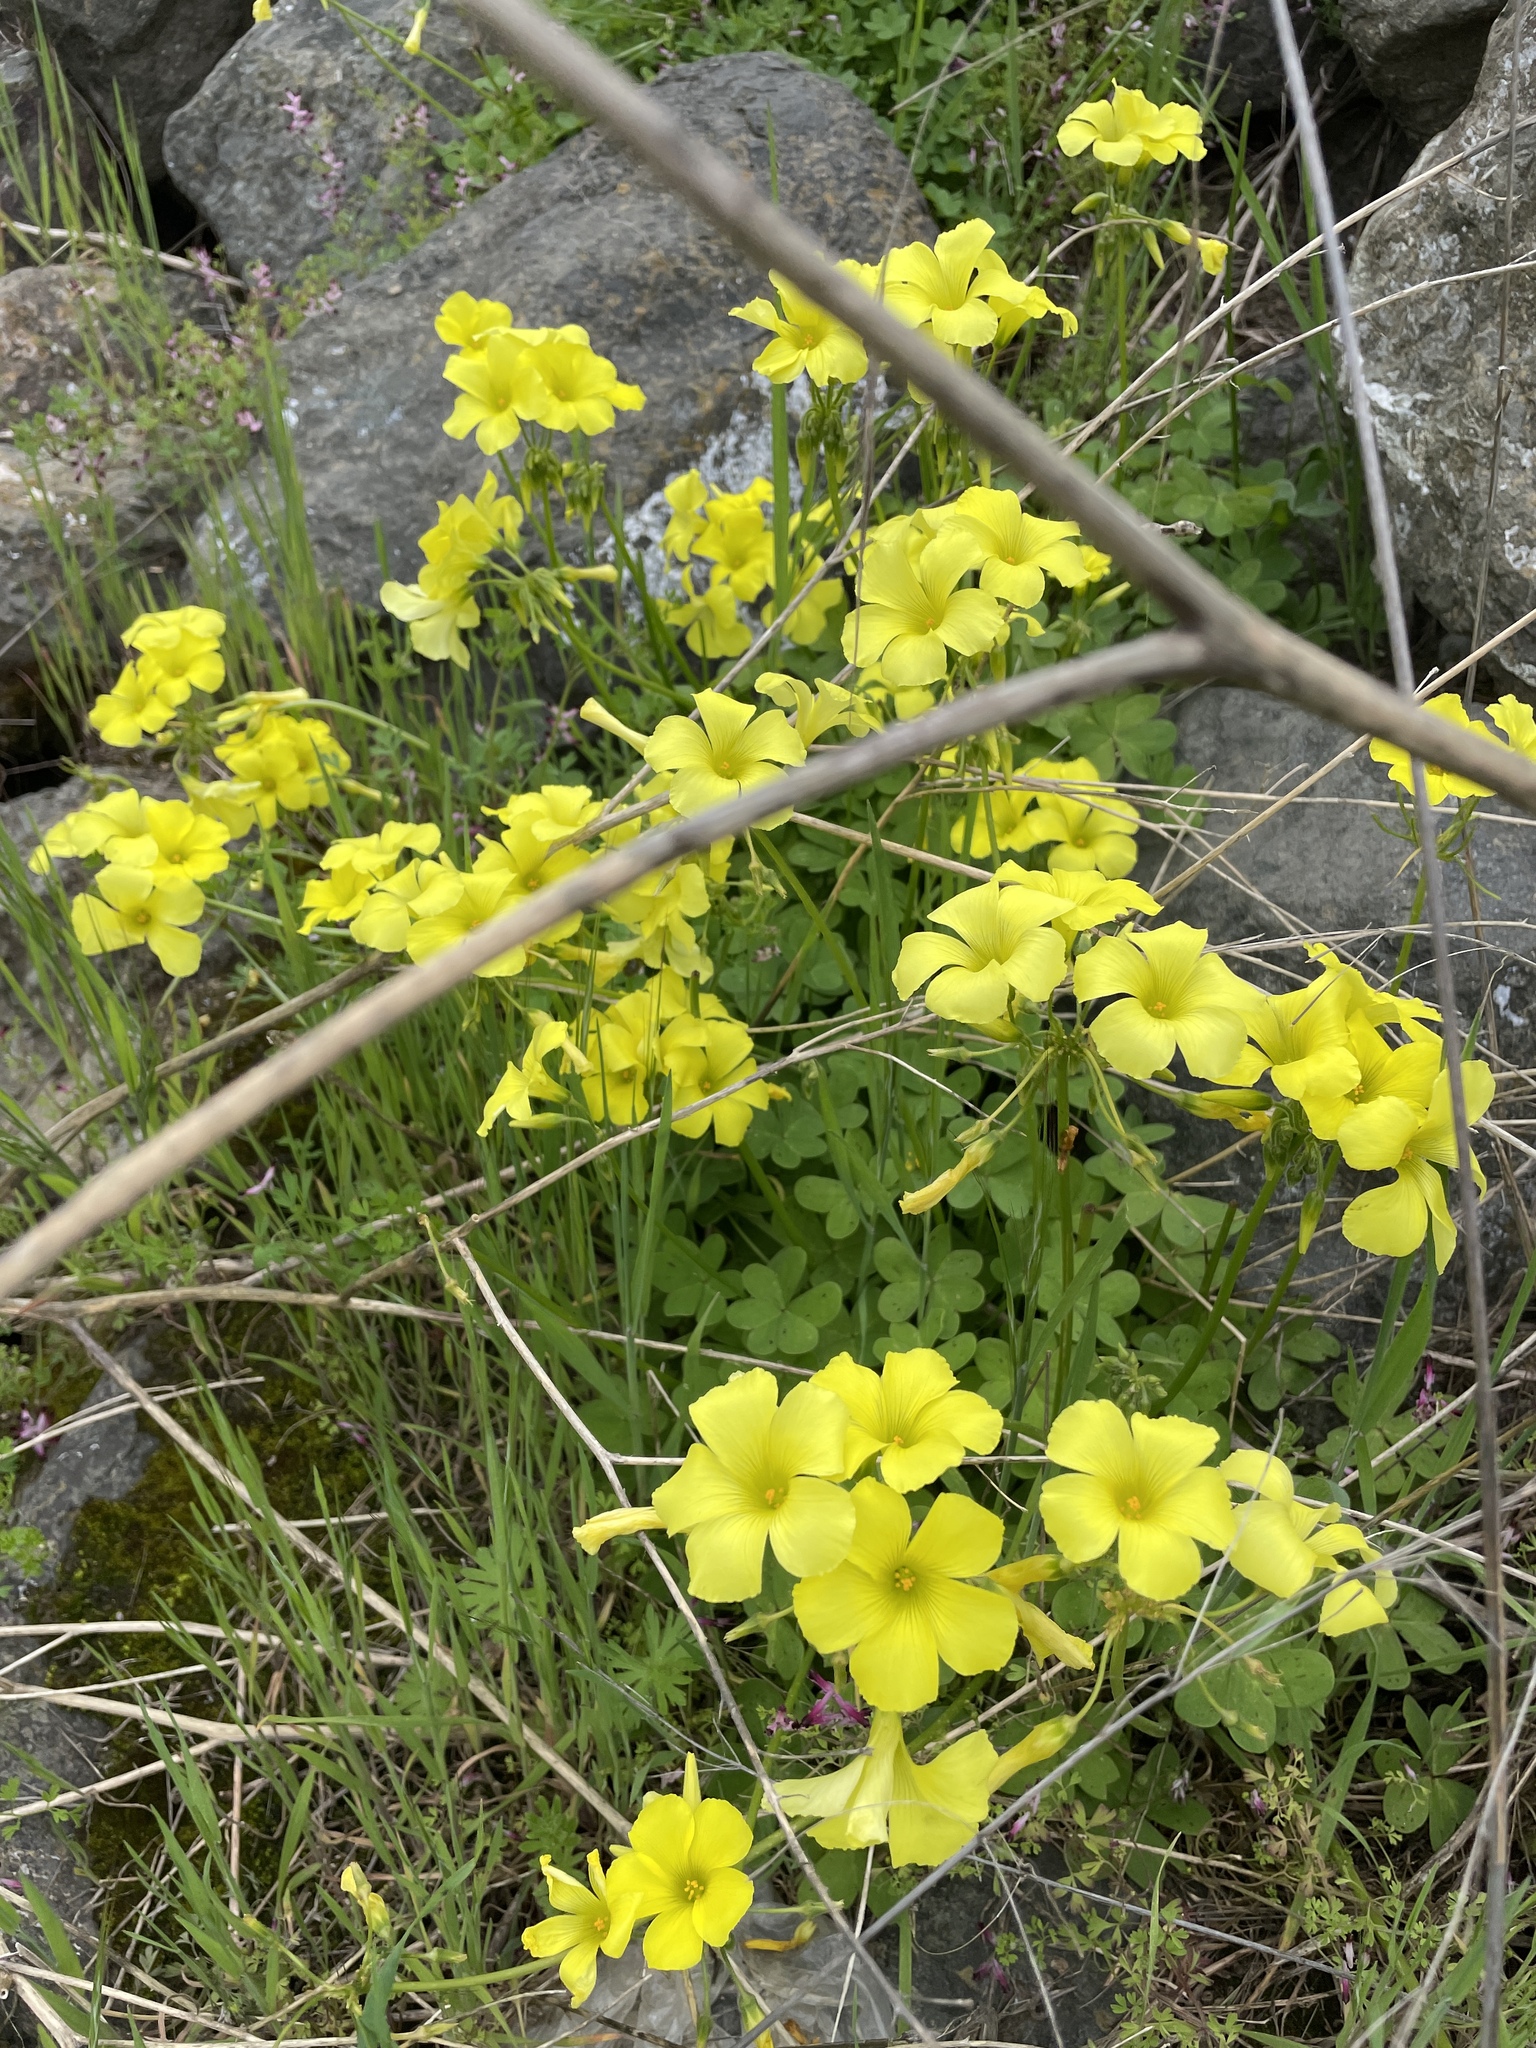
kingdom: Plantae
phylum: Tracheophyta
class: Magnoliopsida
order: Oxalidales
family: Oxalidaceae
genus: Oxalis
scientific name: Oxalis pes-caprae
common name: Bermuda-buttercup
